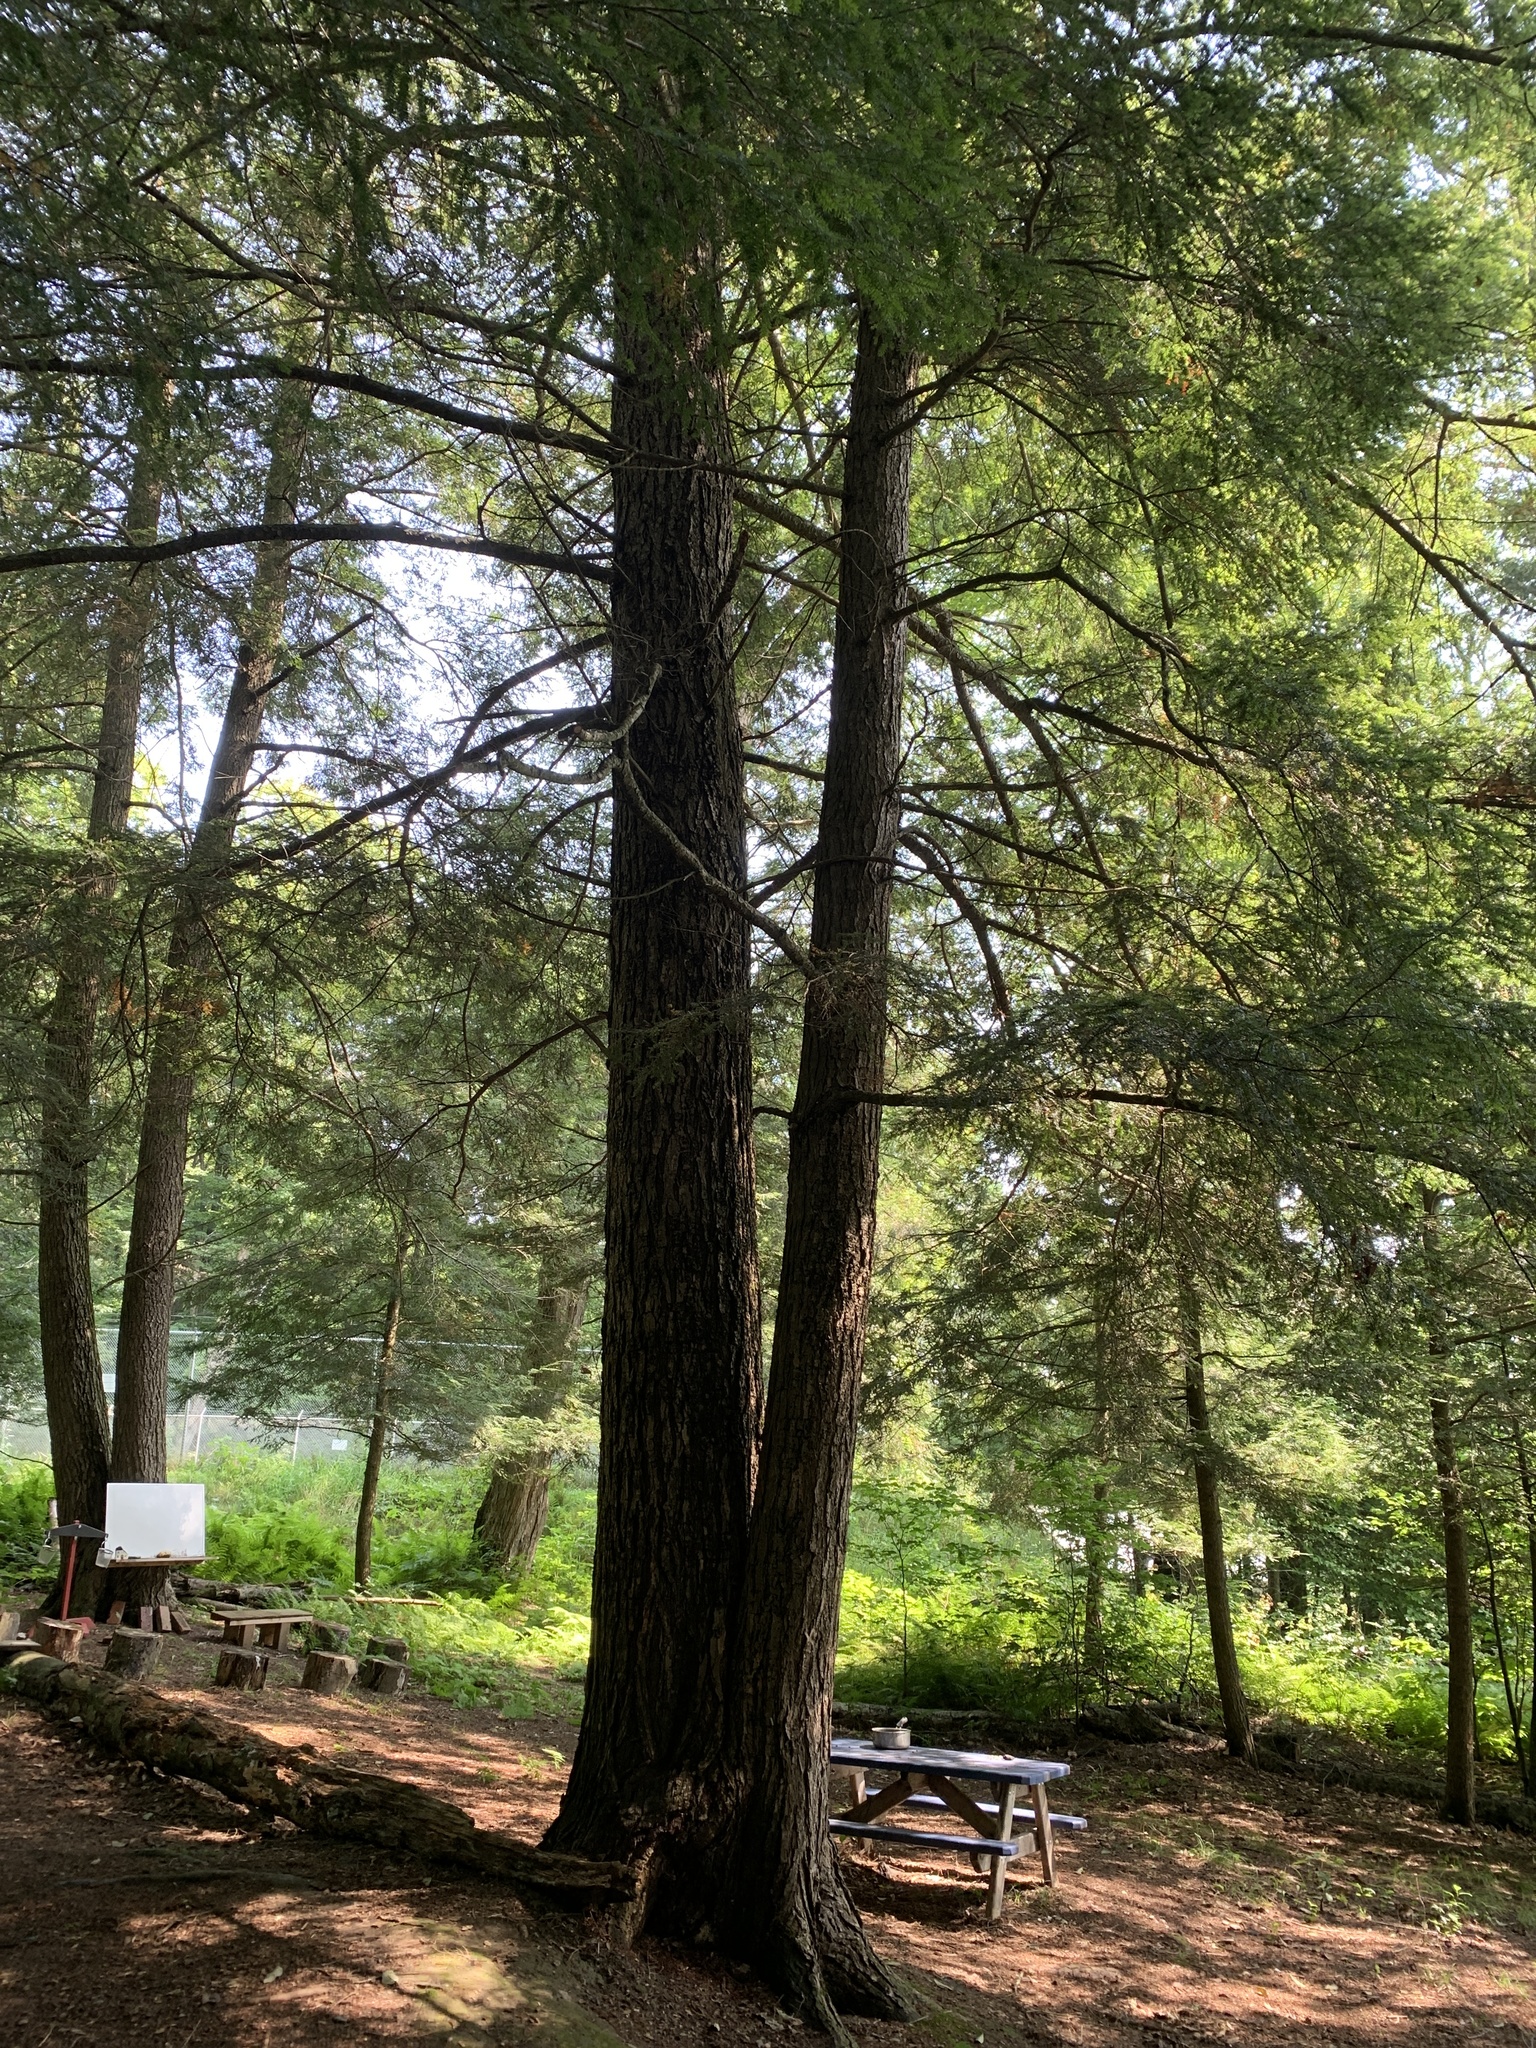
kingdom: Plantae
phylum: Tracheophyta
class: Pinopsida
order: Pinales
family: Pinaceae
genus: Tsuga
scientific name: Tsuga canadensis
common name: Eastern hemlock
